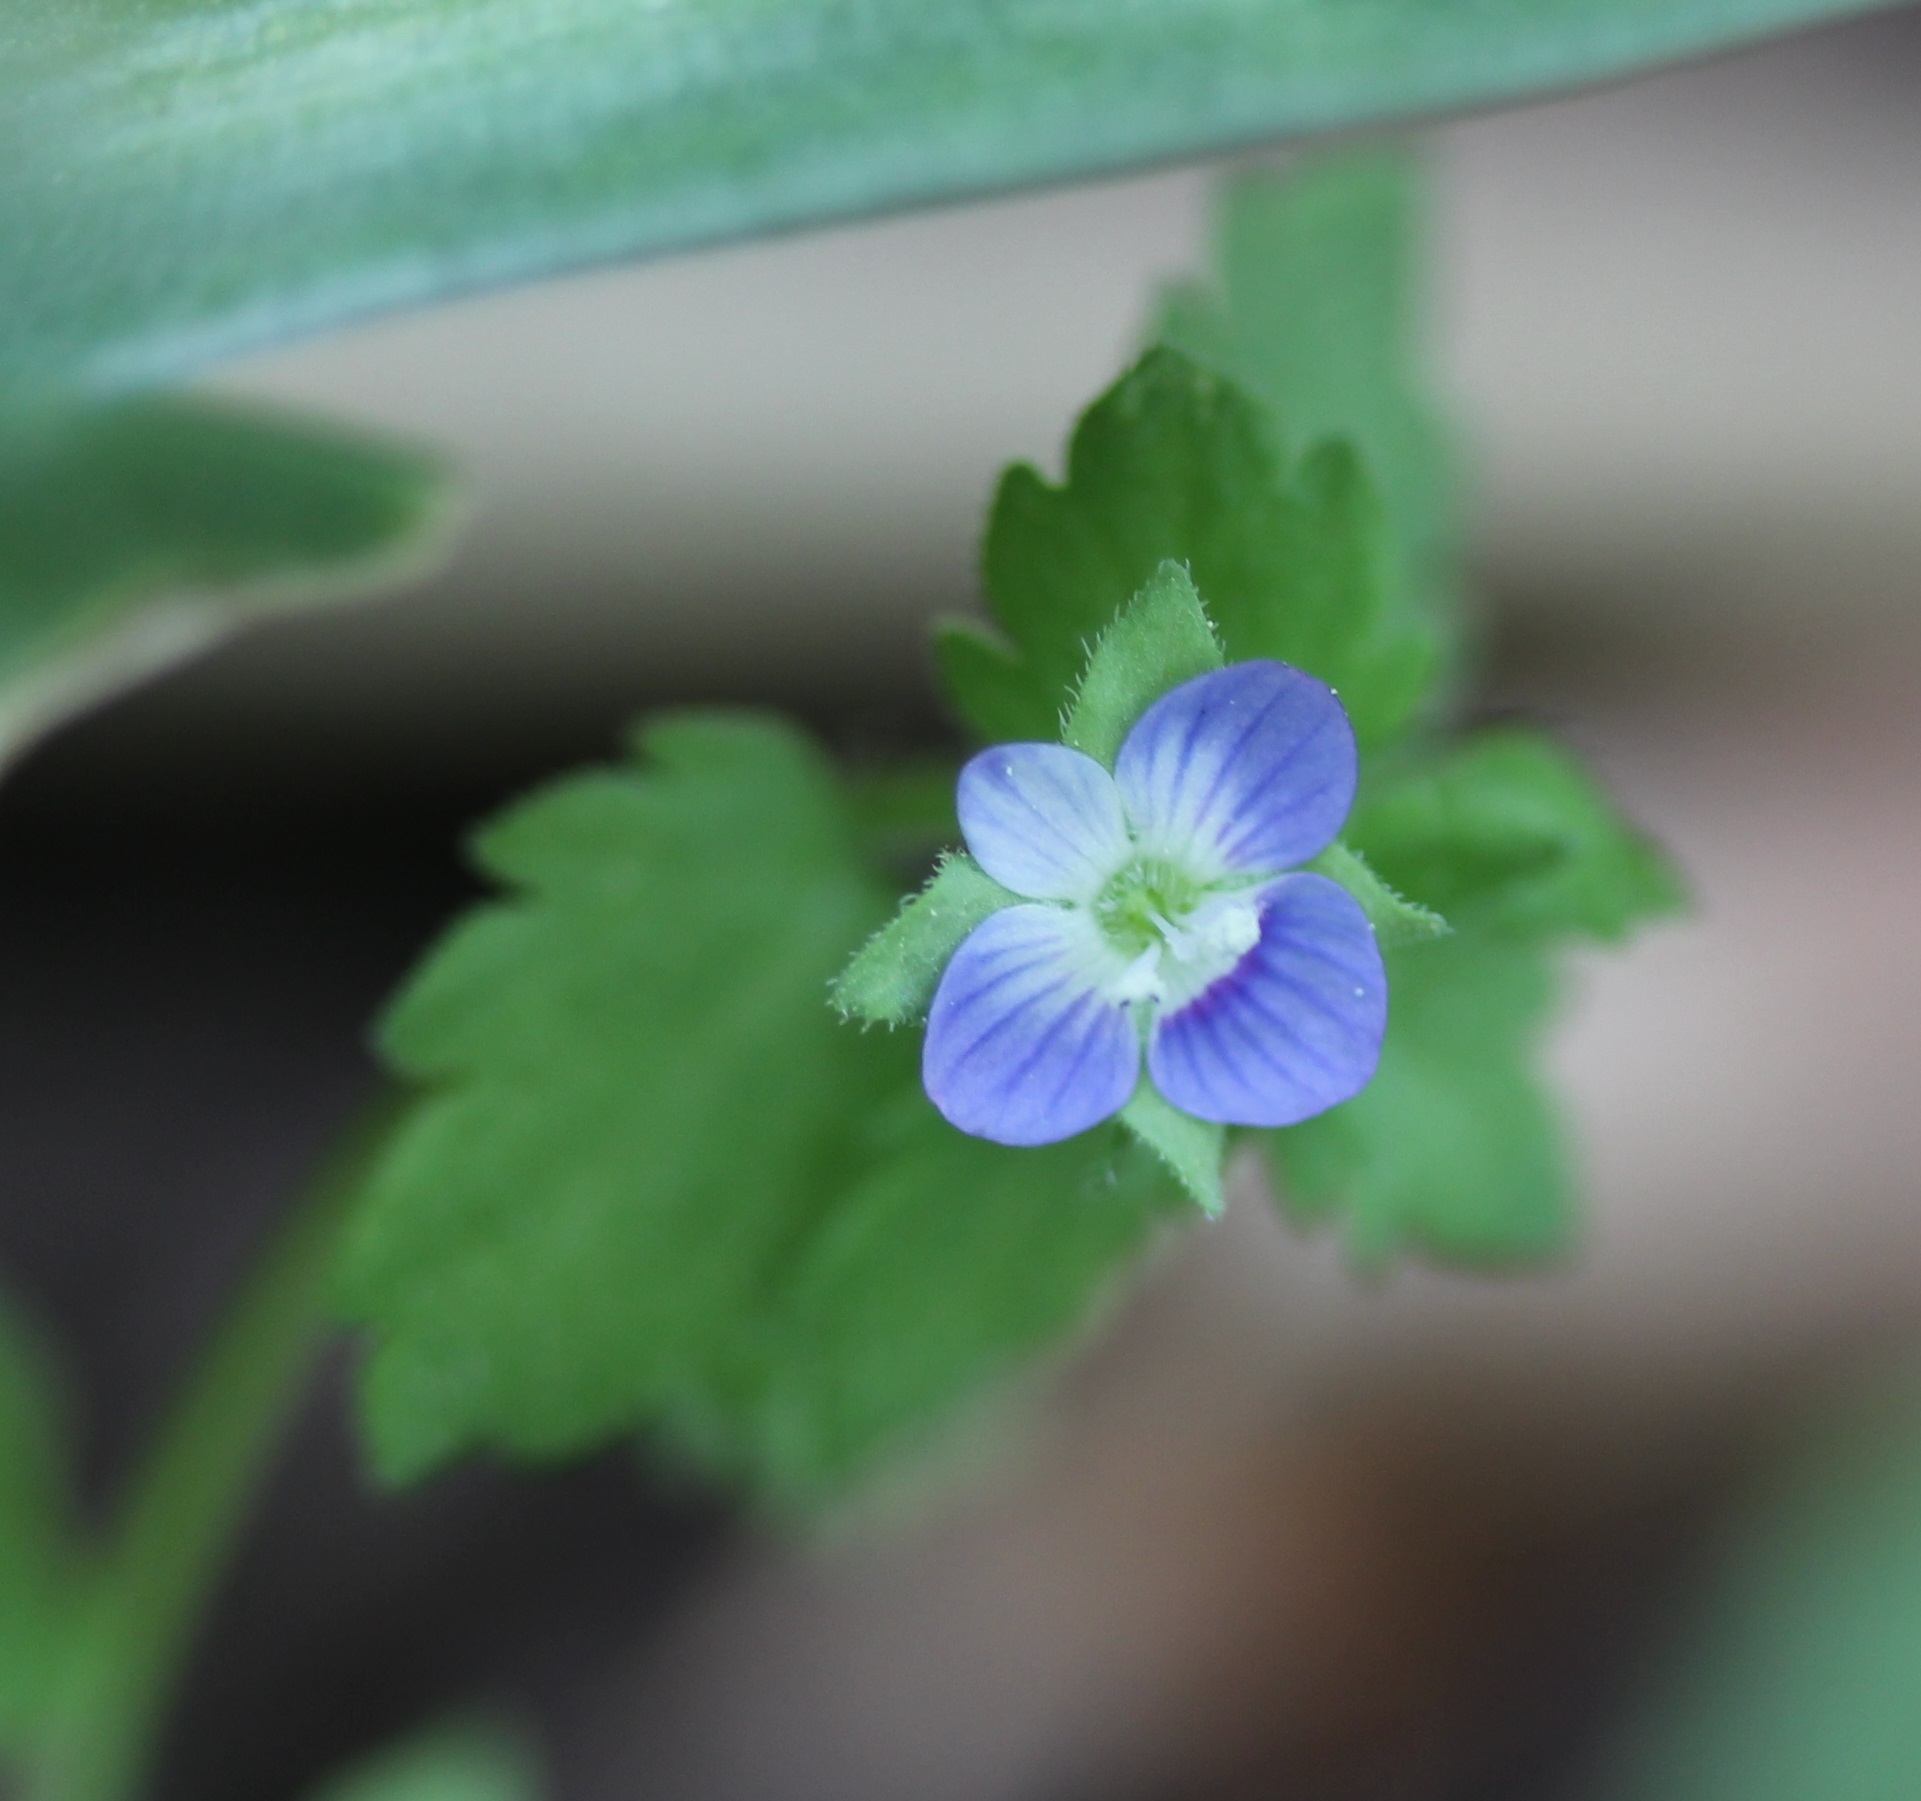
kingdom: Plantae
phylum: Tracheophyta
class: Magnoliopsida
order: Lamiales
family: Plantaginaceae
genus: Veronica
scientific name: Veronica persica
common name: Common field-speedwell
